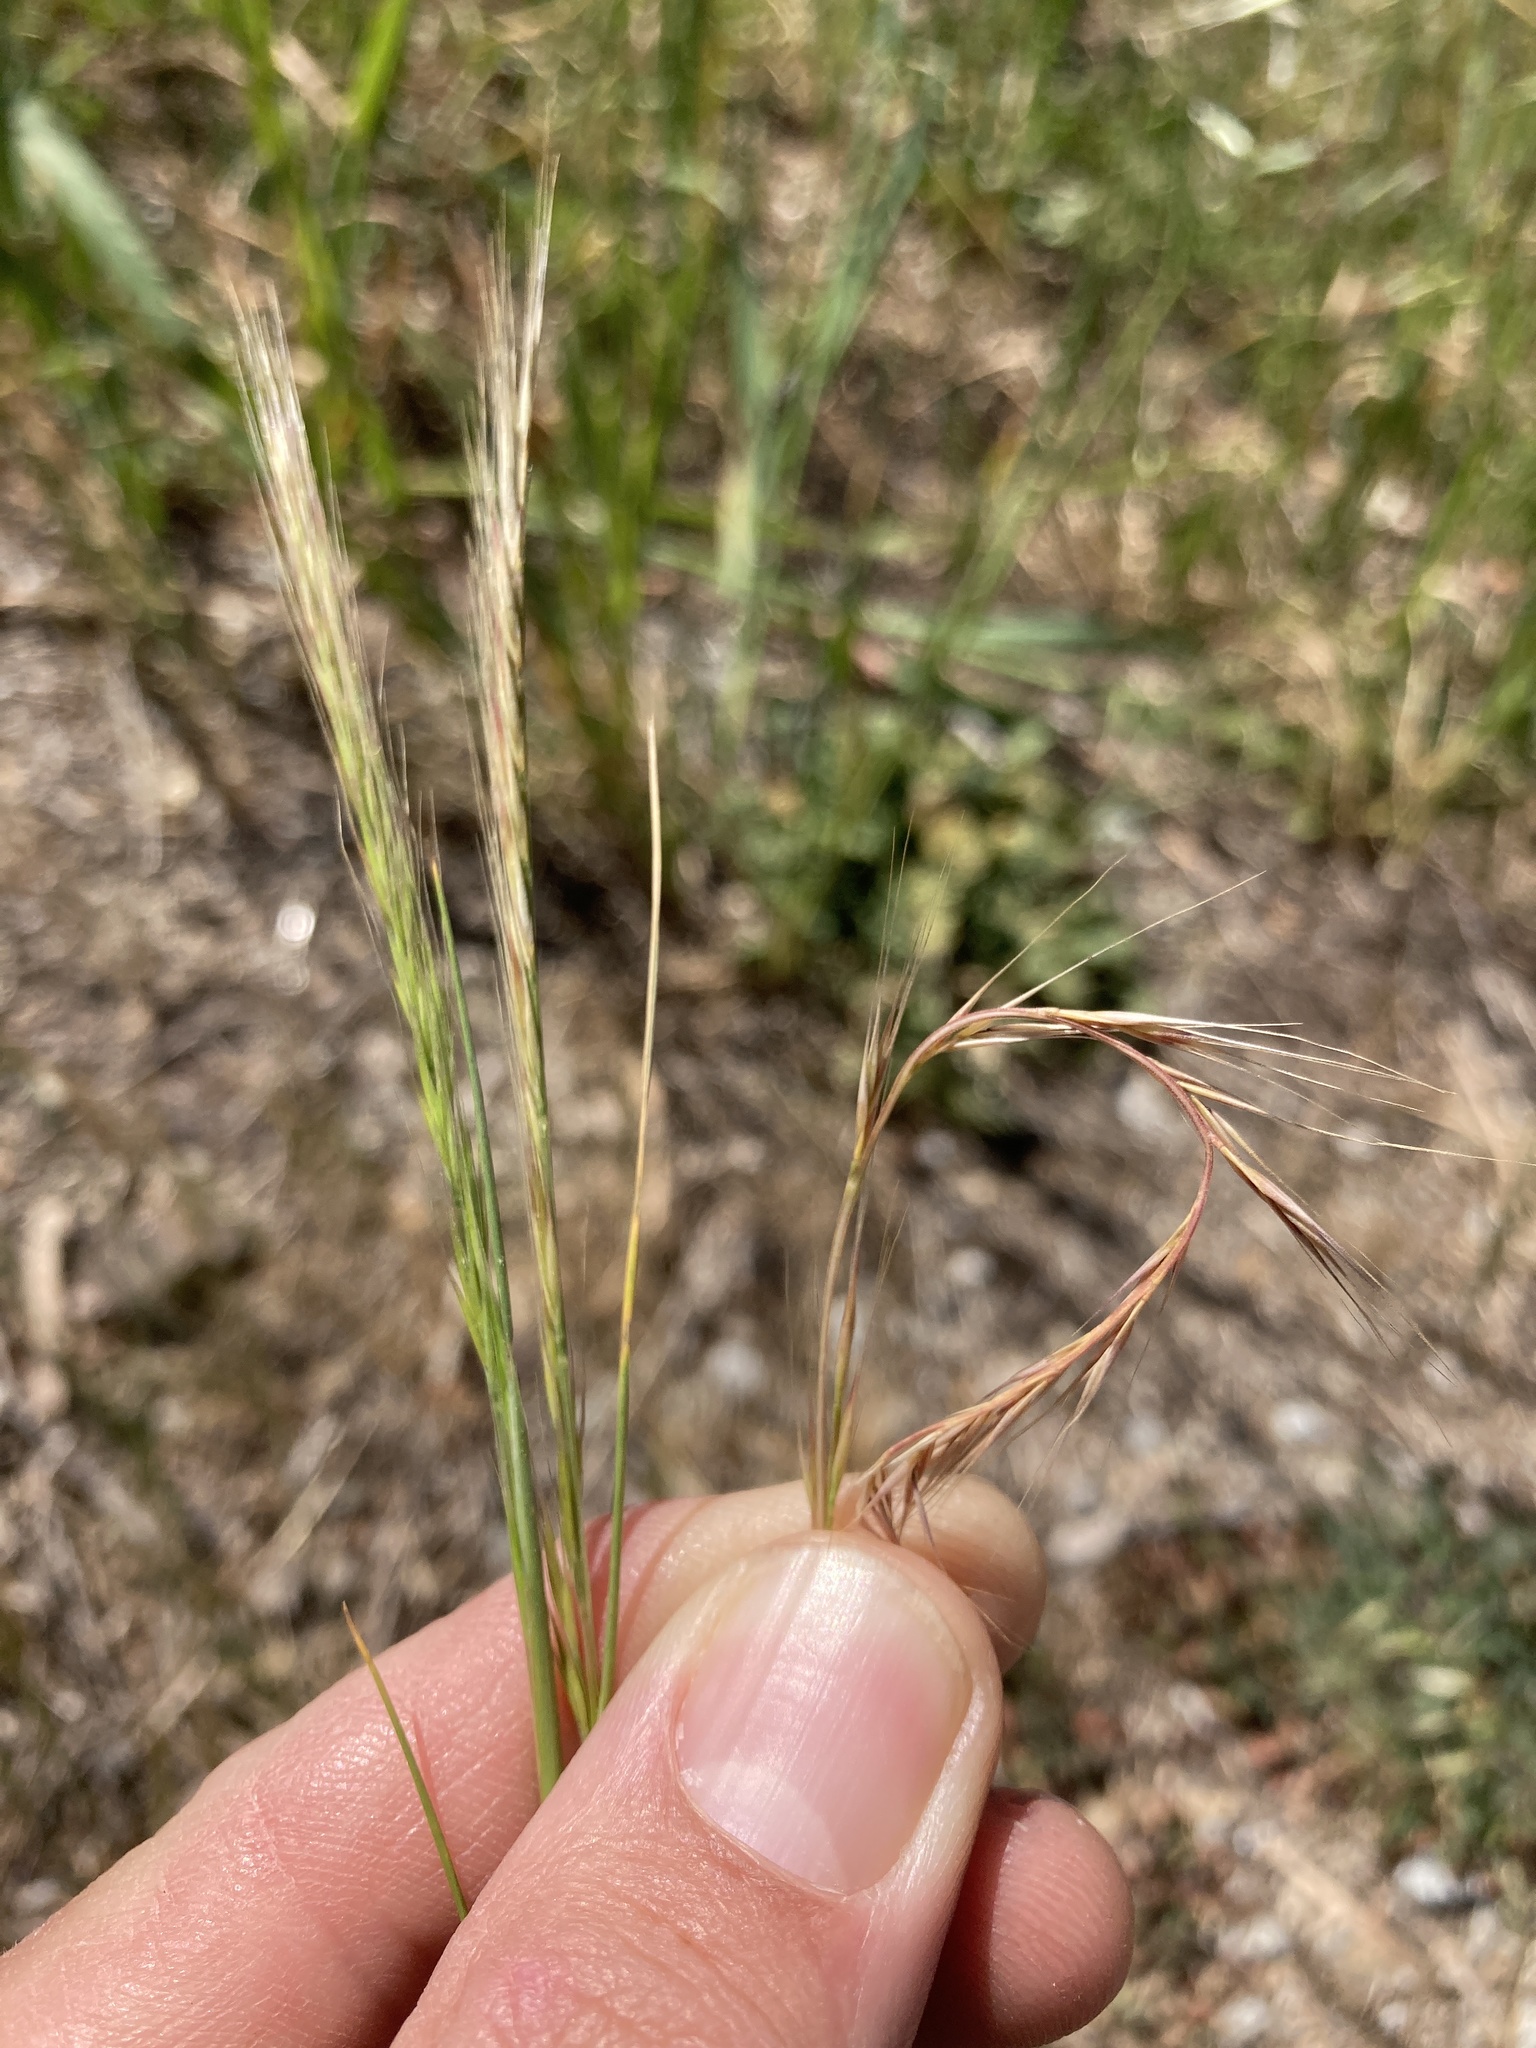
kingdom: Plantae
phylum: Tracheophyta
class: Liliopsida
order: Poales
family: Poaceae
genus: Festuca
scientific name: Festuca myuros
